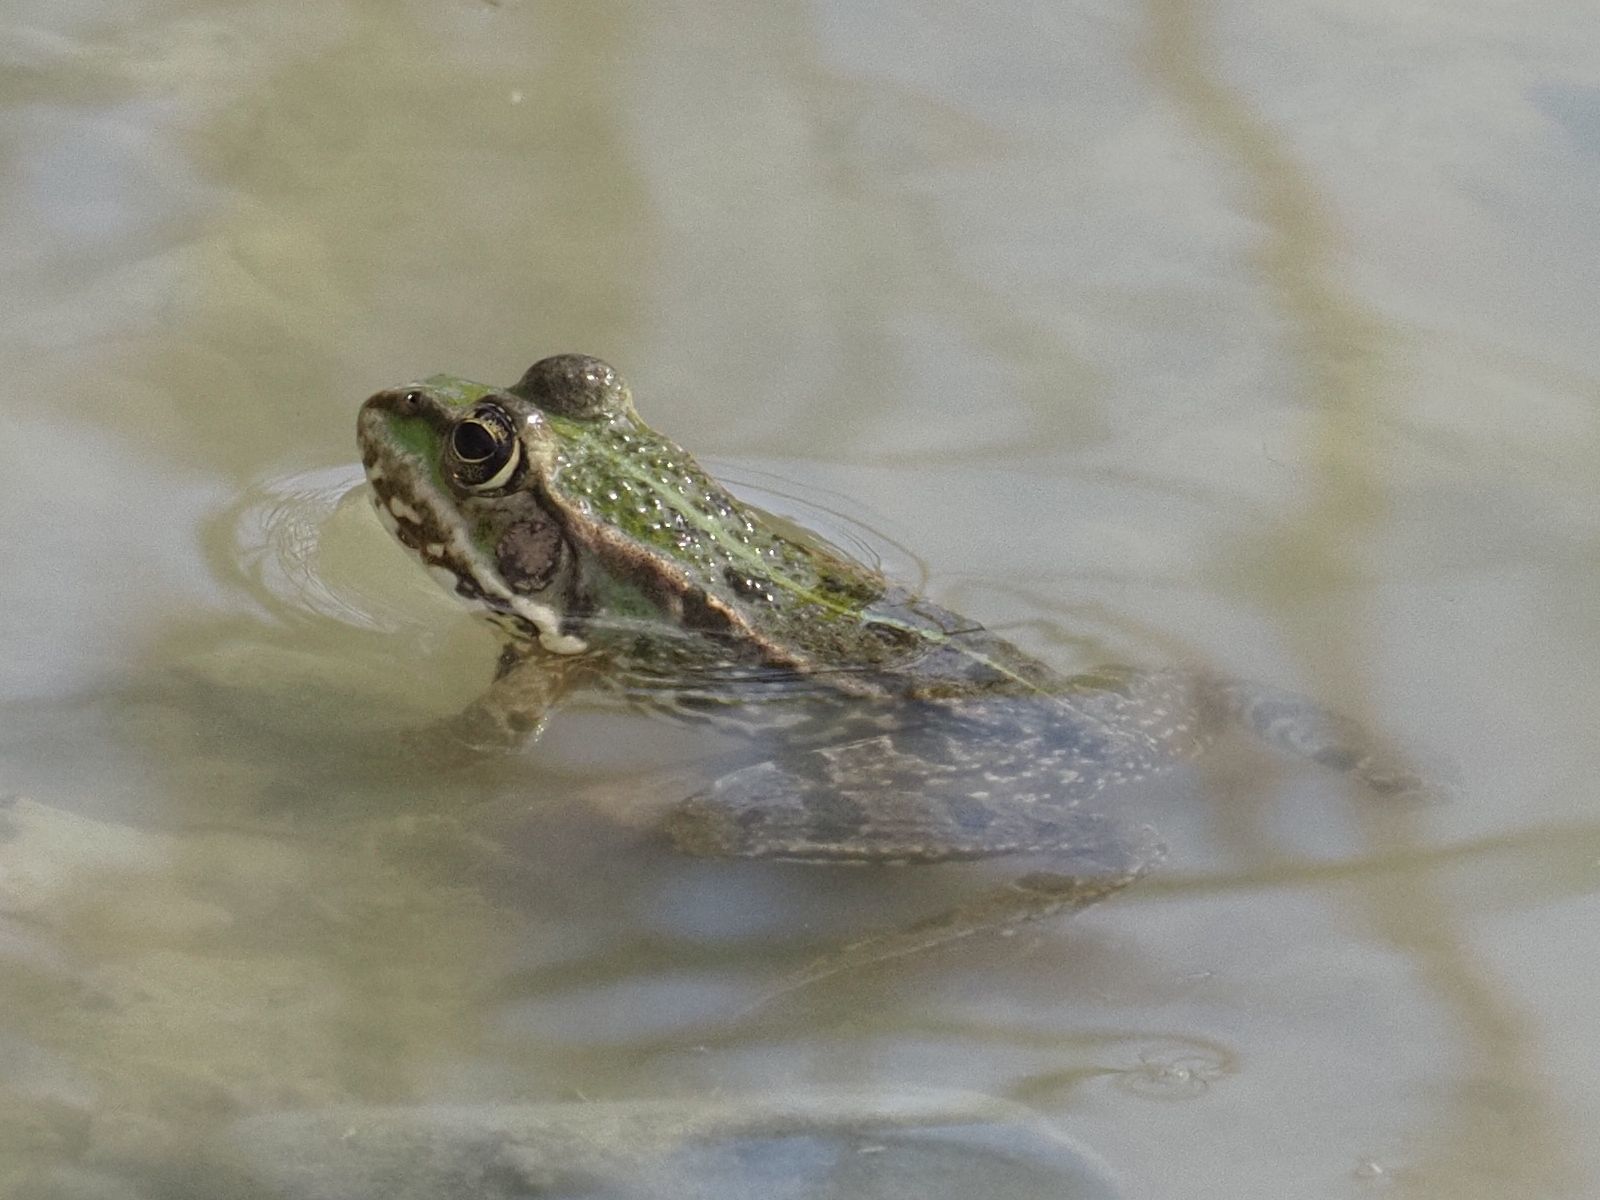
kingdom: Animalia
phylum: Chordata
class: Amphibia
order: Anura
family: Ranidae
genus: Pelophylax
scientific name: Pelophylax
